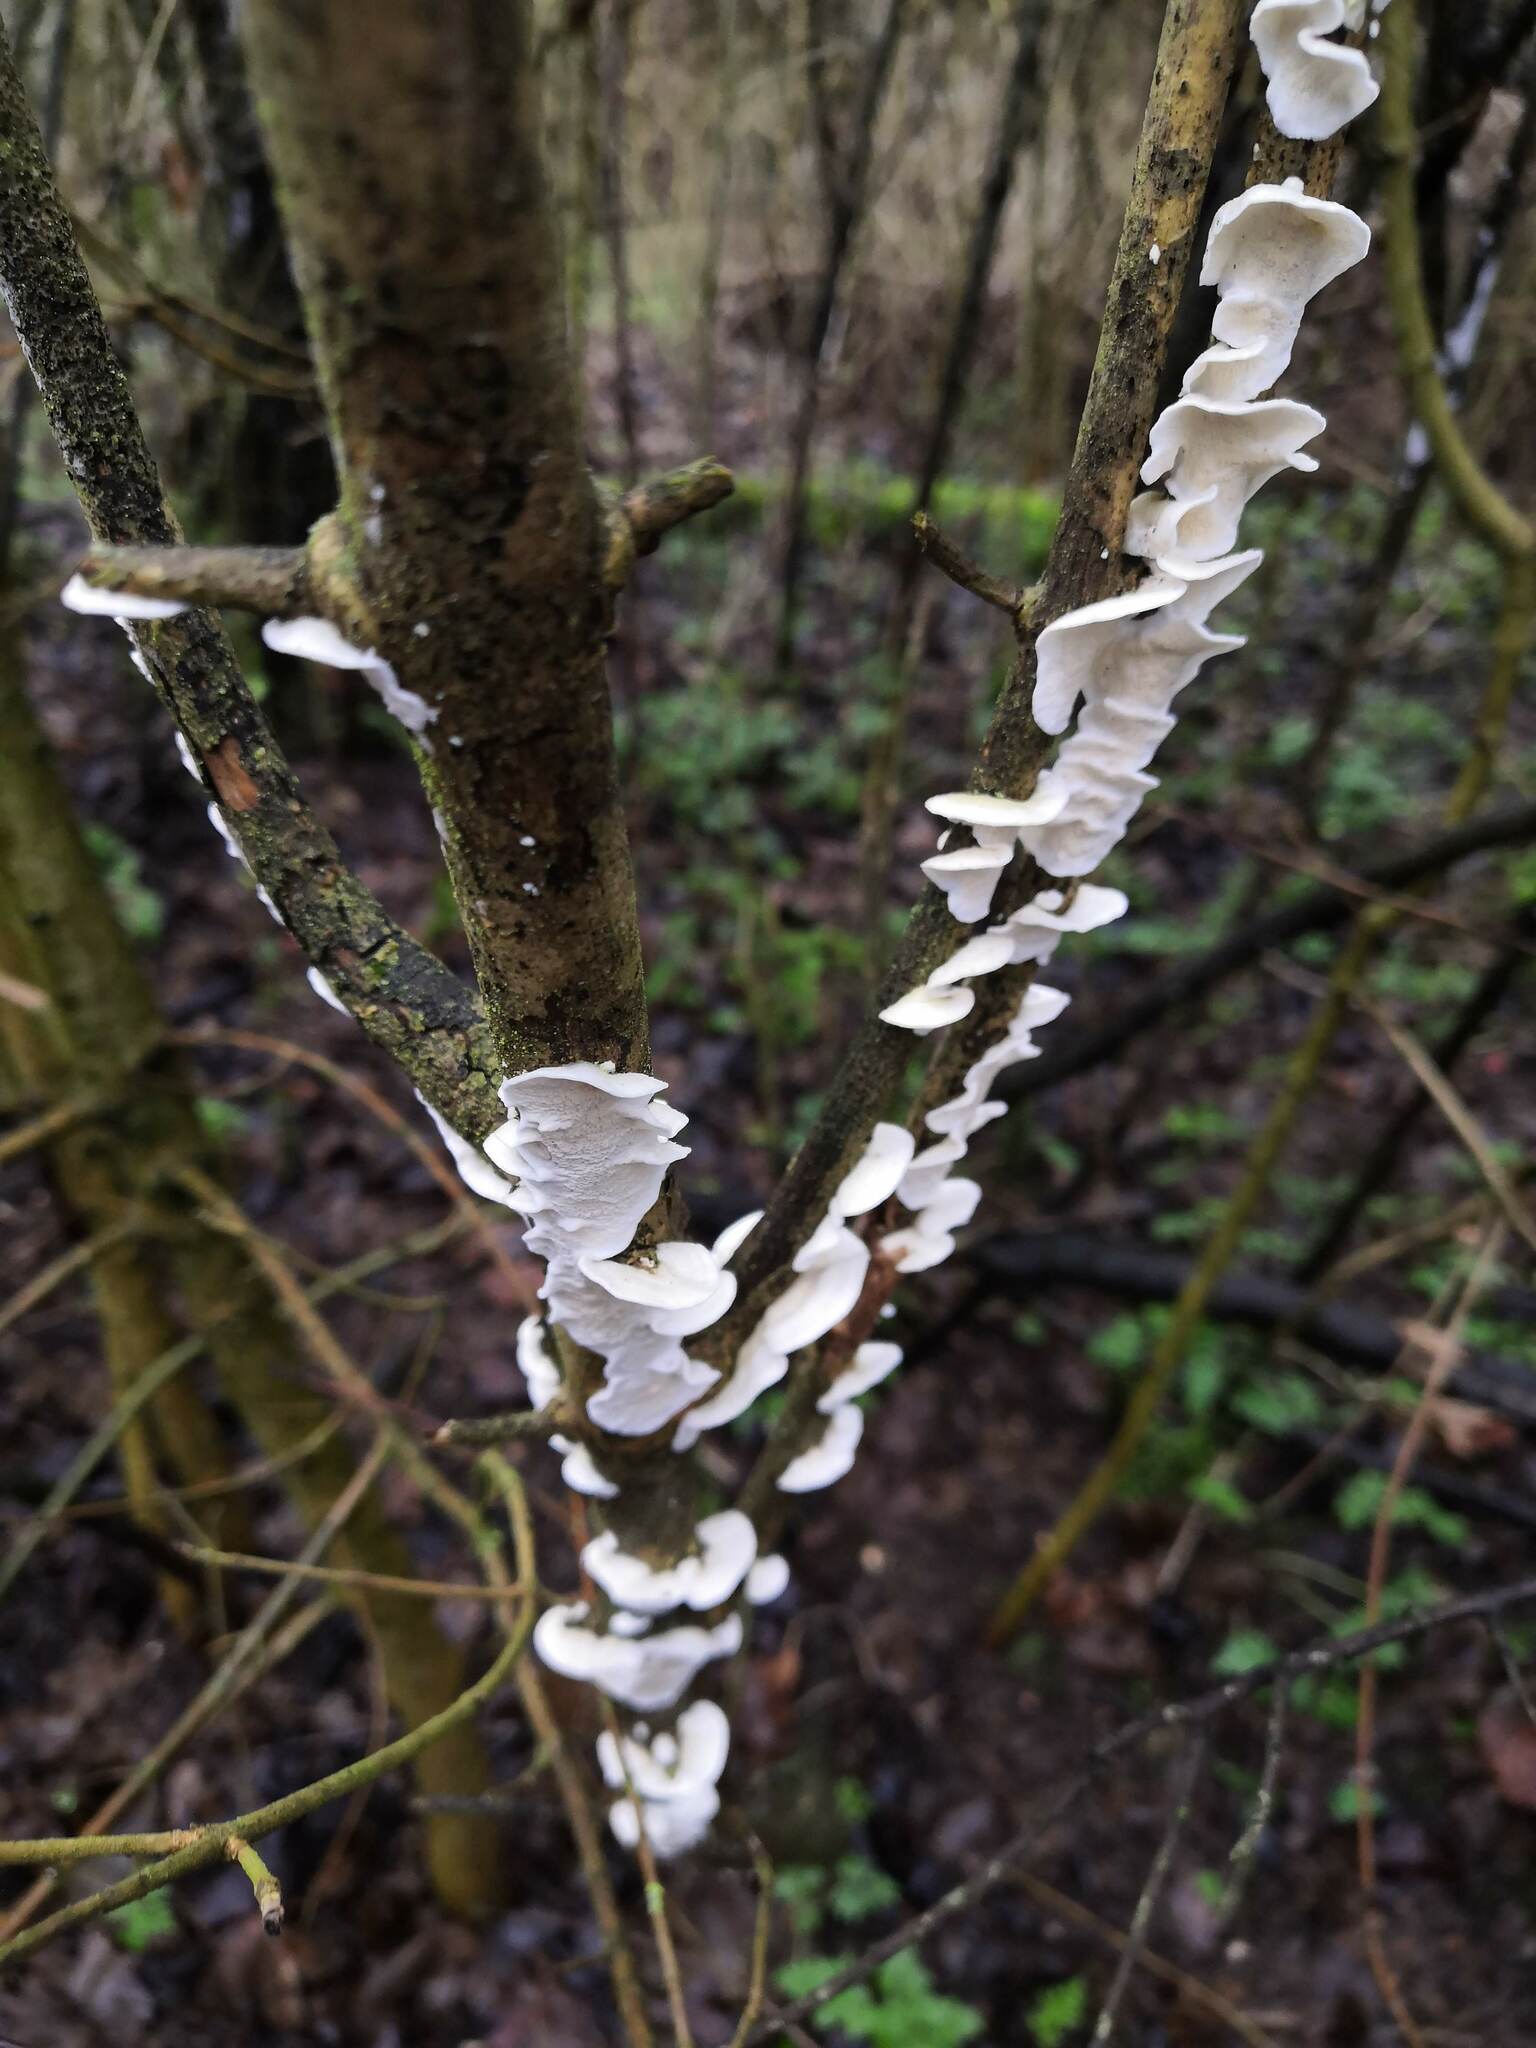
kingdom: Fungi
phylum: Basidiomycota
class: Agaricomycetes
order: Polyporales
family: Irpicaceae
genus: Byssomerulius
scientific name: Byssomerulius corium
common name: Netted crust
